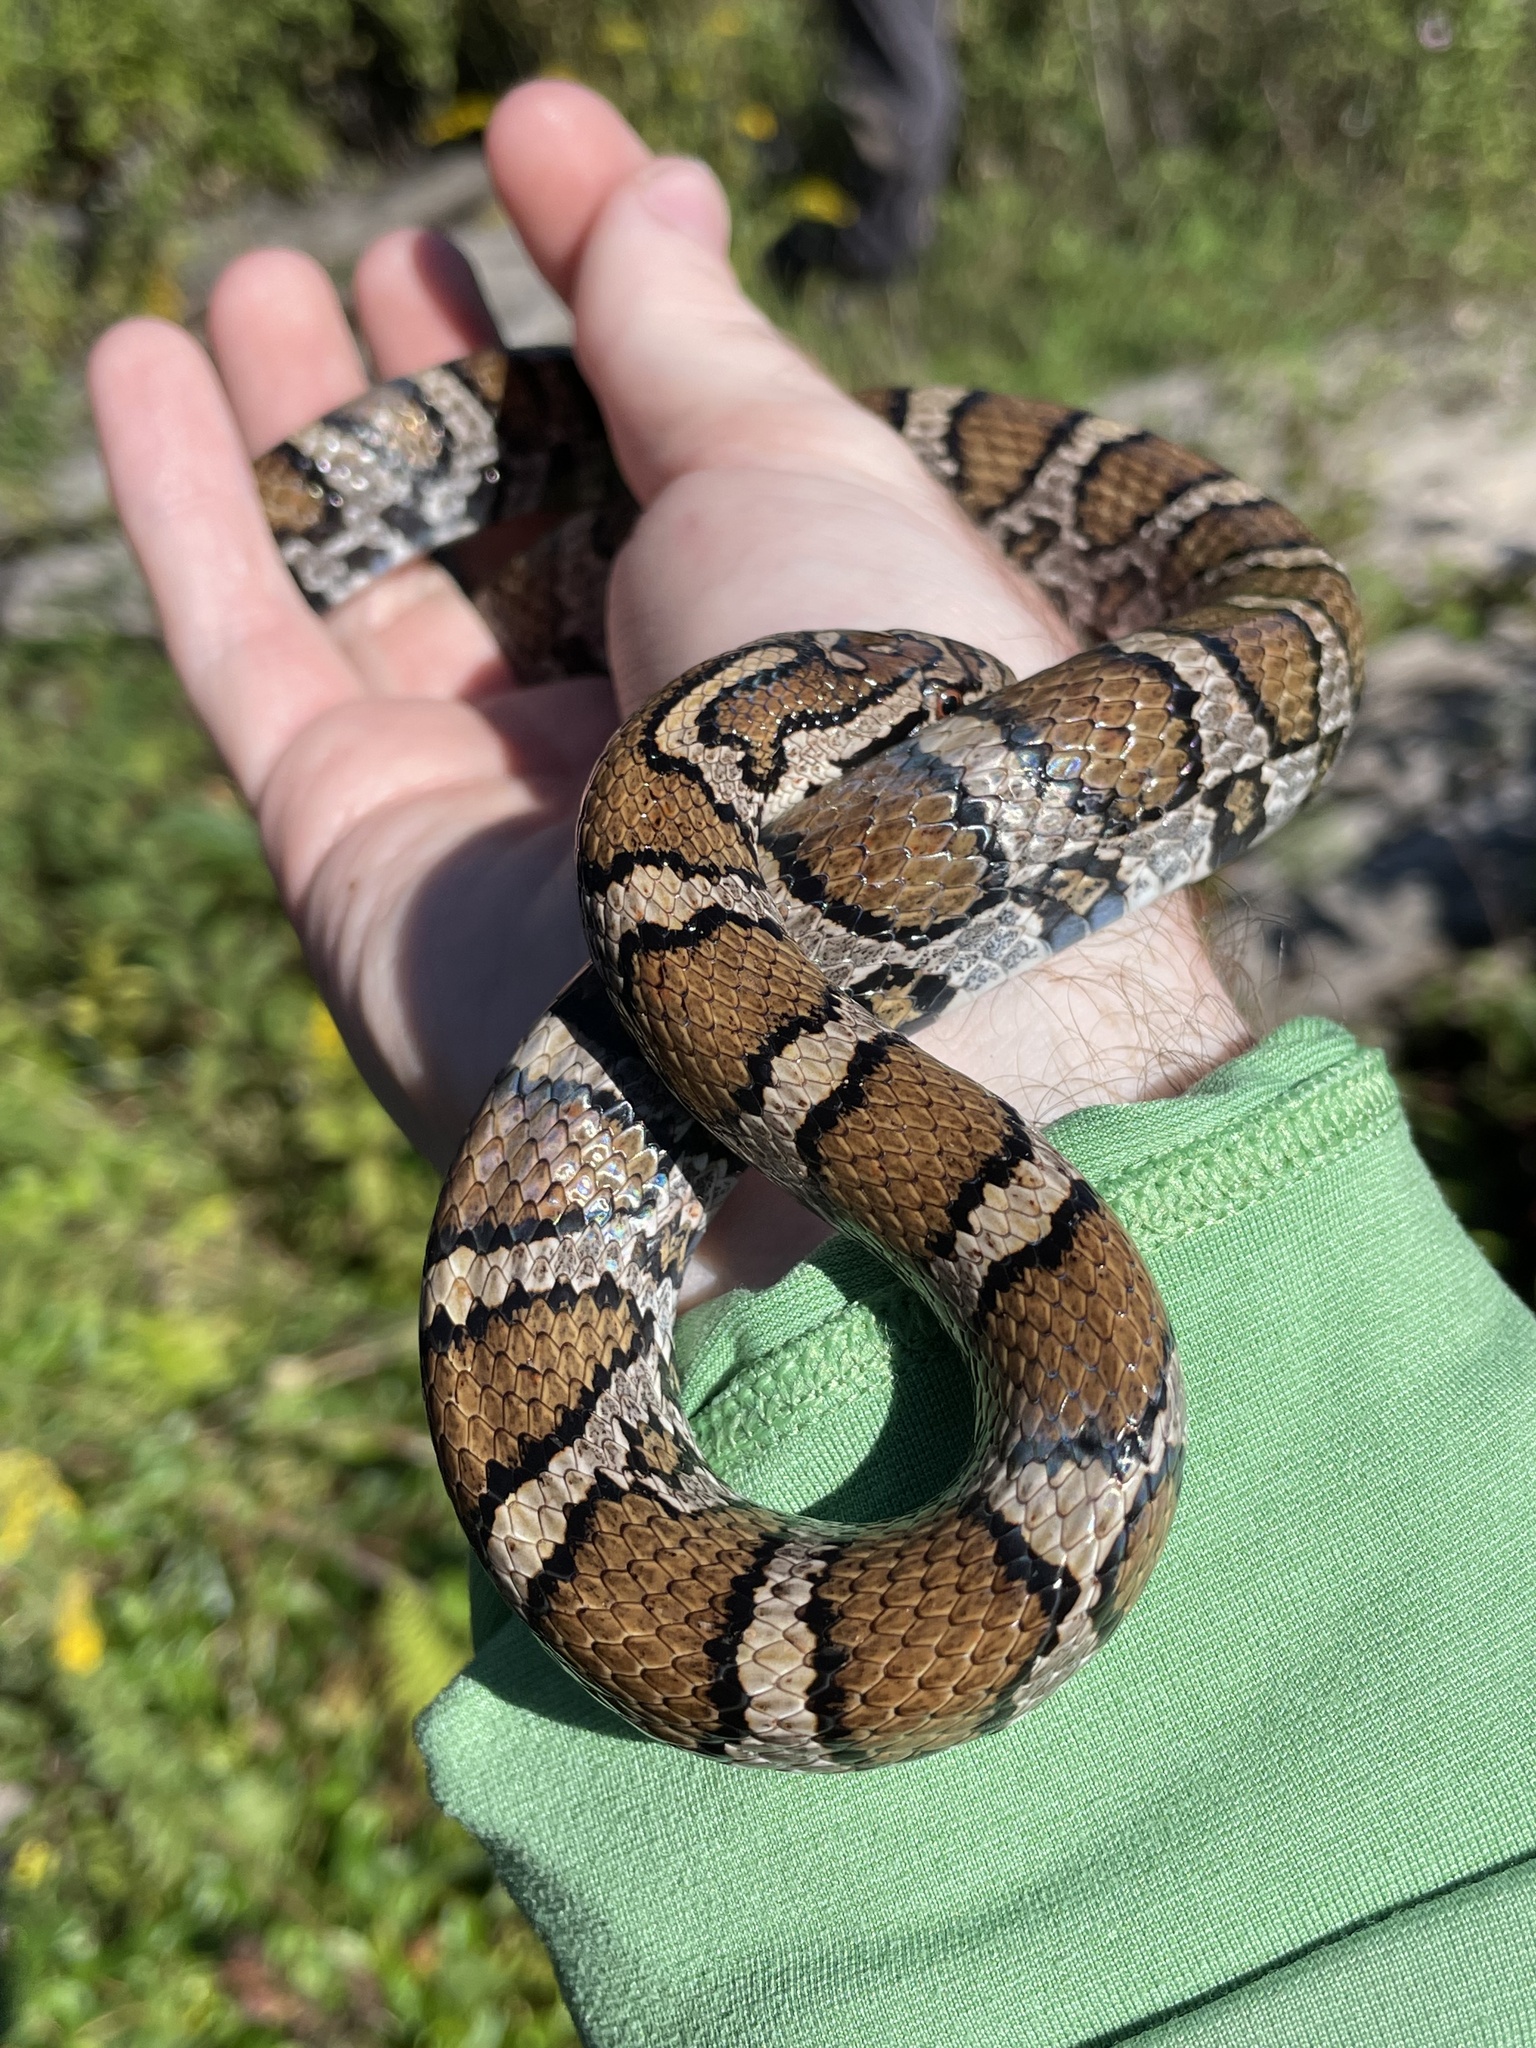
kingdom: Animalia
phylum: Chordata
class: Squamata
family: Colubridae
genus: Lampropeltis
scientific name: Lampropeltis triangulum
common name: Eastern milksnake
